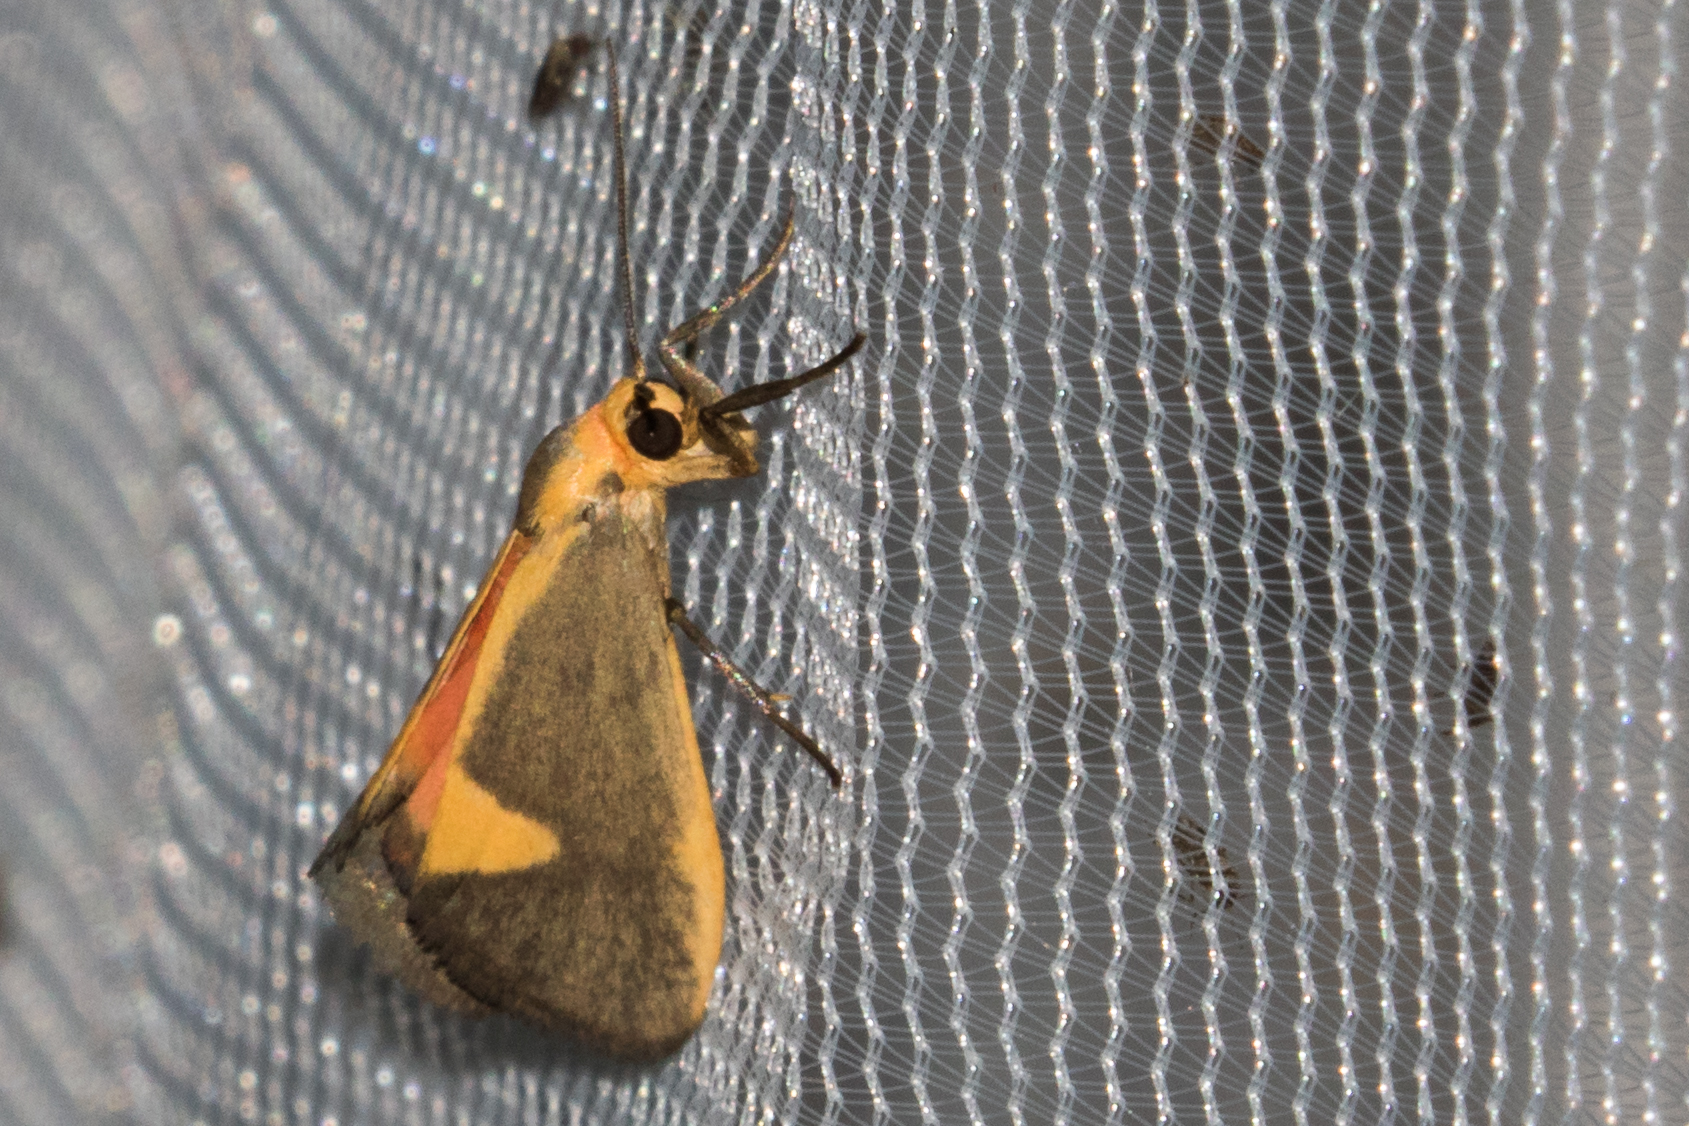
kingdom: Animalia
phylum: Arthropoda
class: Insecta
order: Lepidoptera
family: Erebidae
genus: Cisthene
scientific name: Cisthene plumbea
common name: Lead colored lichen moth
